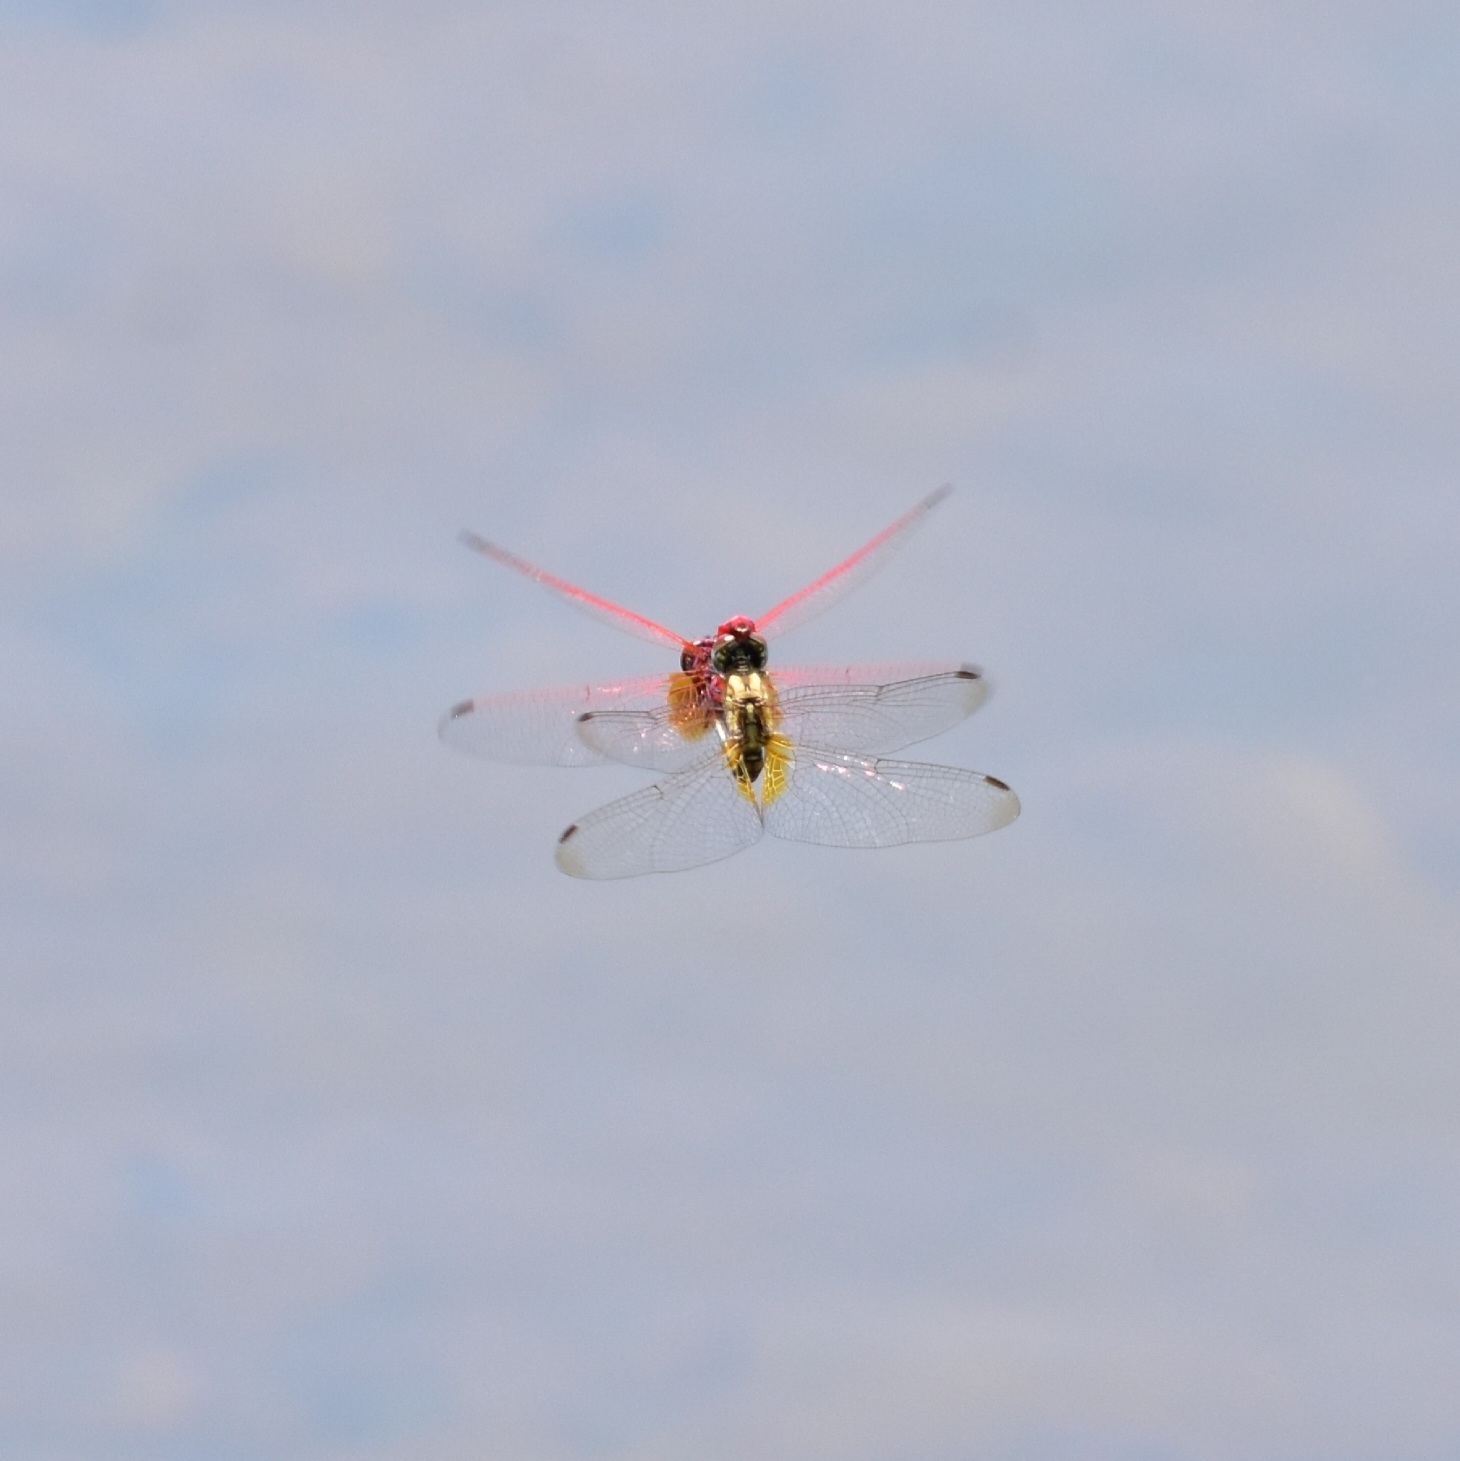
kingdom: Animalia
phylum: Arthropoda
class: Insecta
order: Odonata
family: Libellulidae
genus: Trithemis
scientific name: Trithemis aurora
